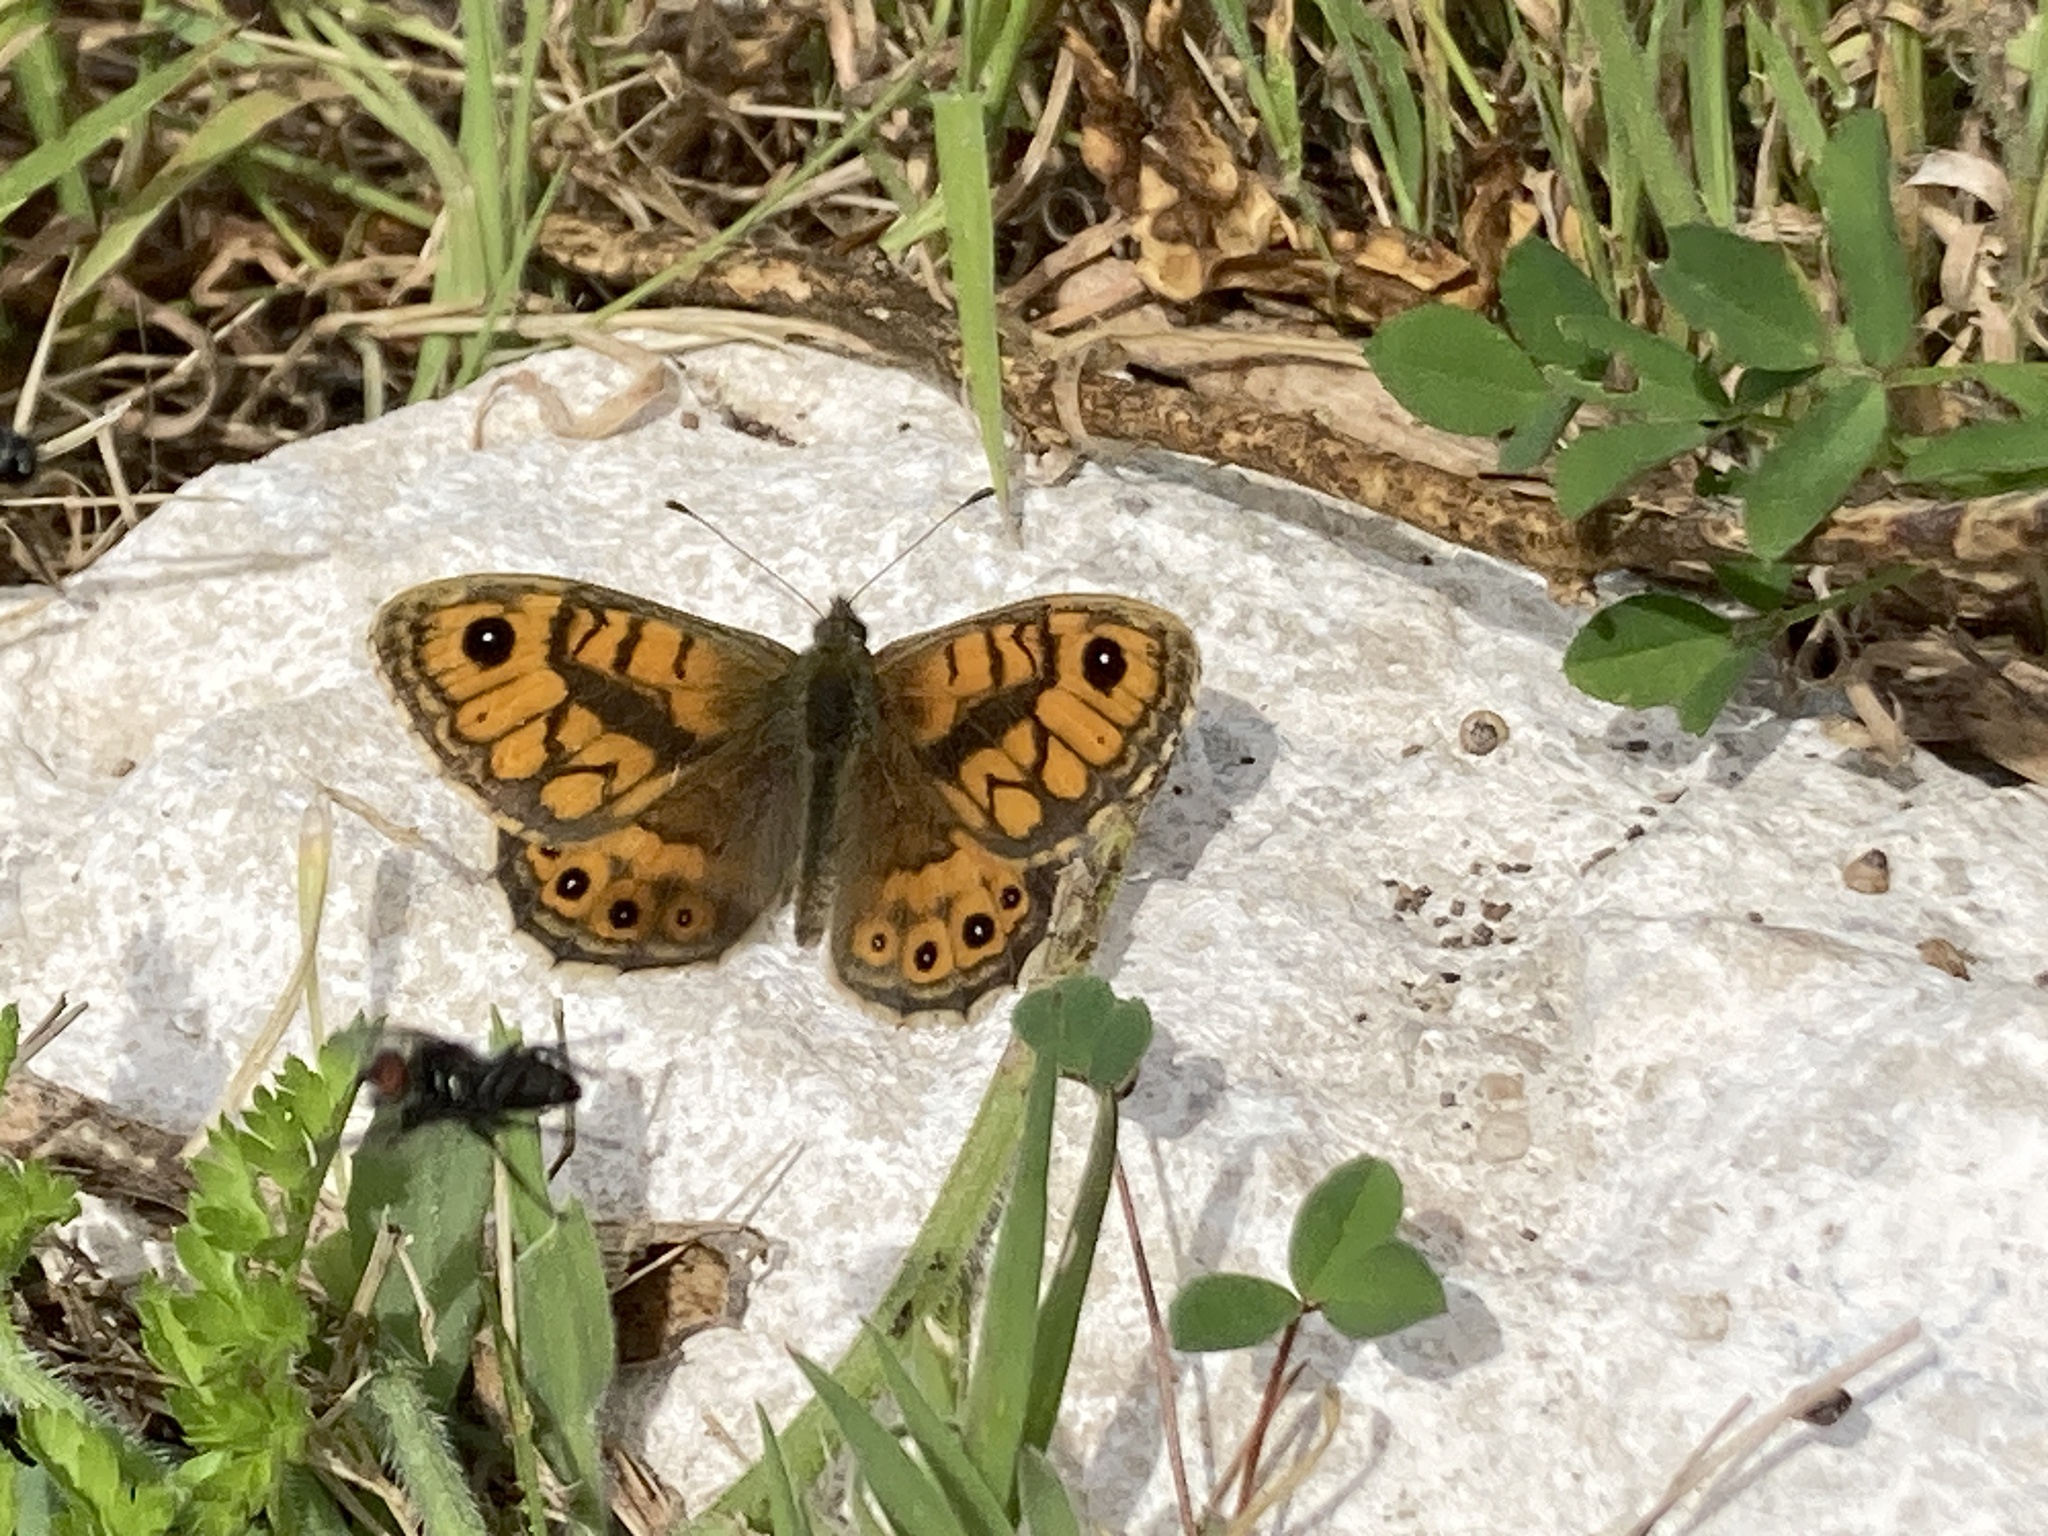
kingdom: Animalia
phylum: Arthropoda
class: Insecta
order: Lepidoptera
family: Nymphalidae
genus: Pararge
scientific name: Pararge Lasiommata megera
